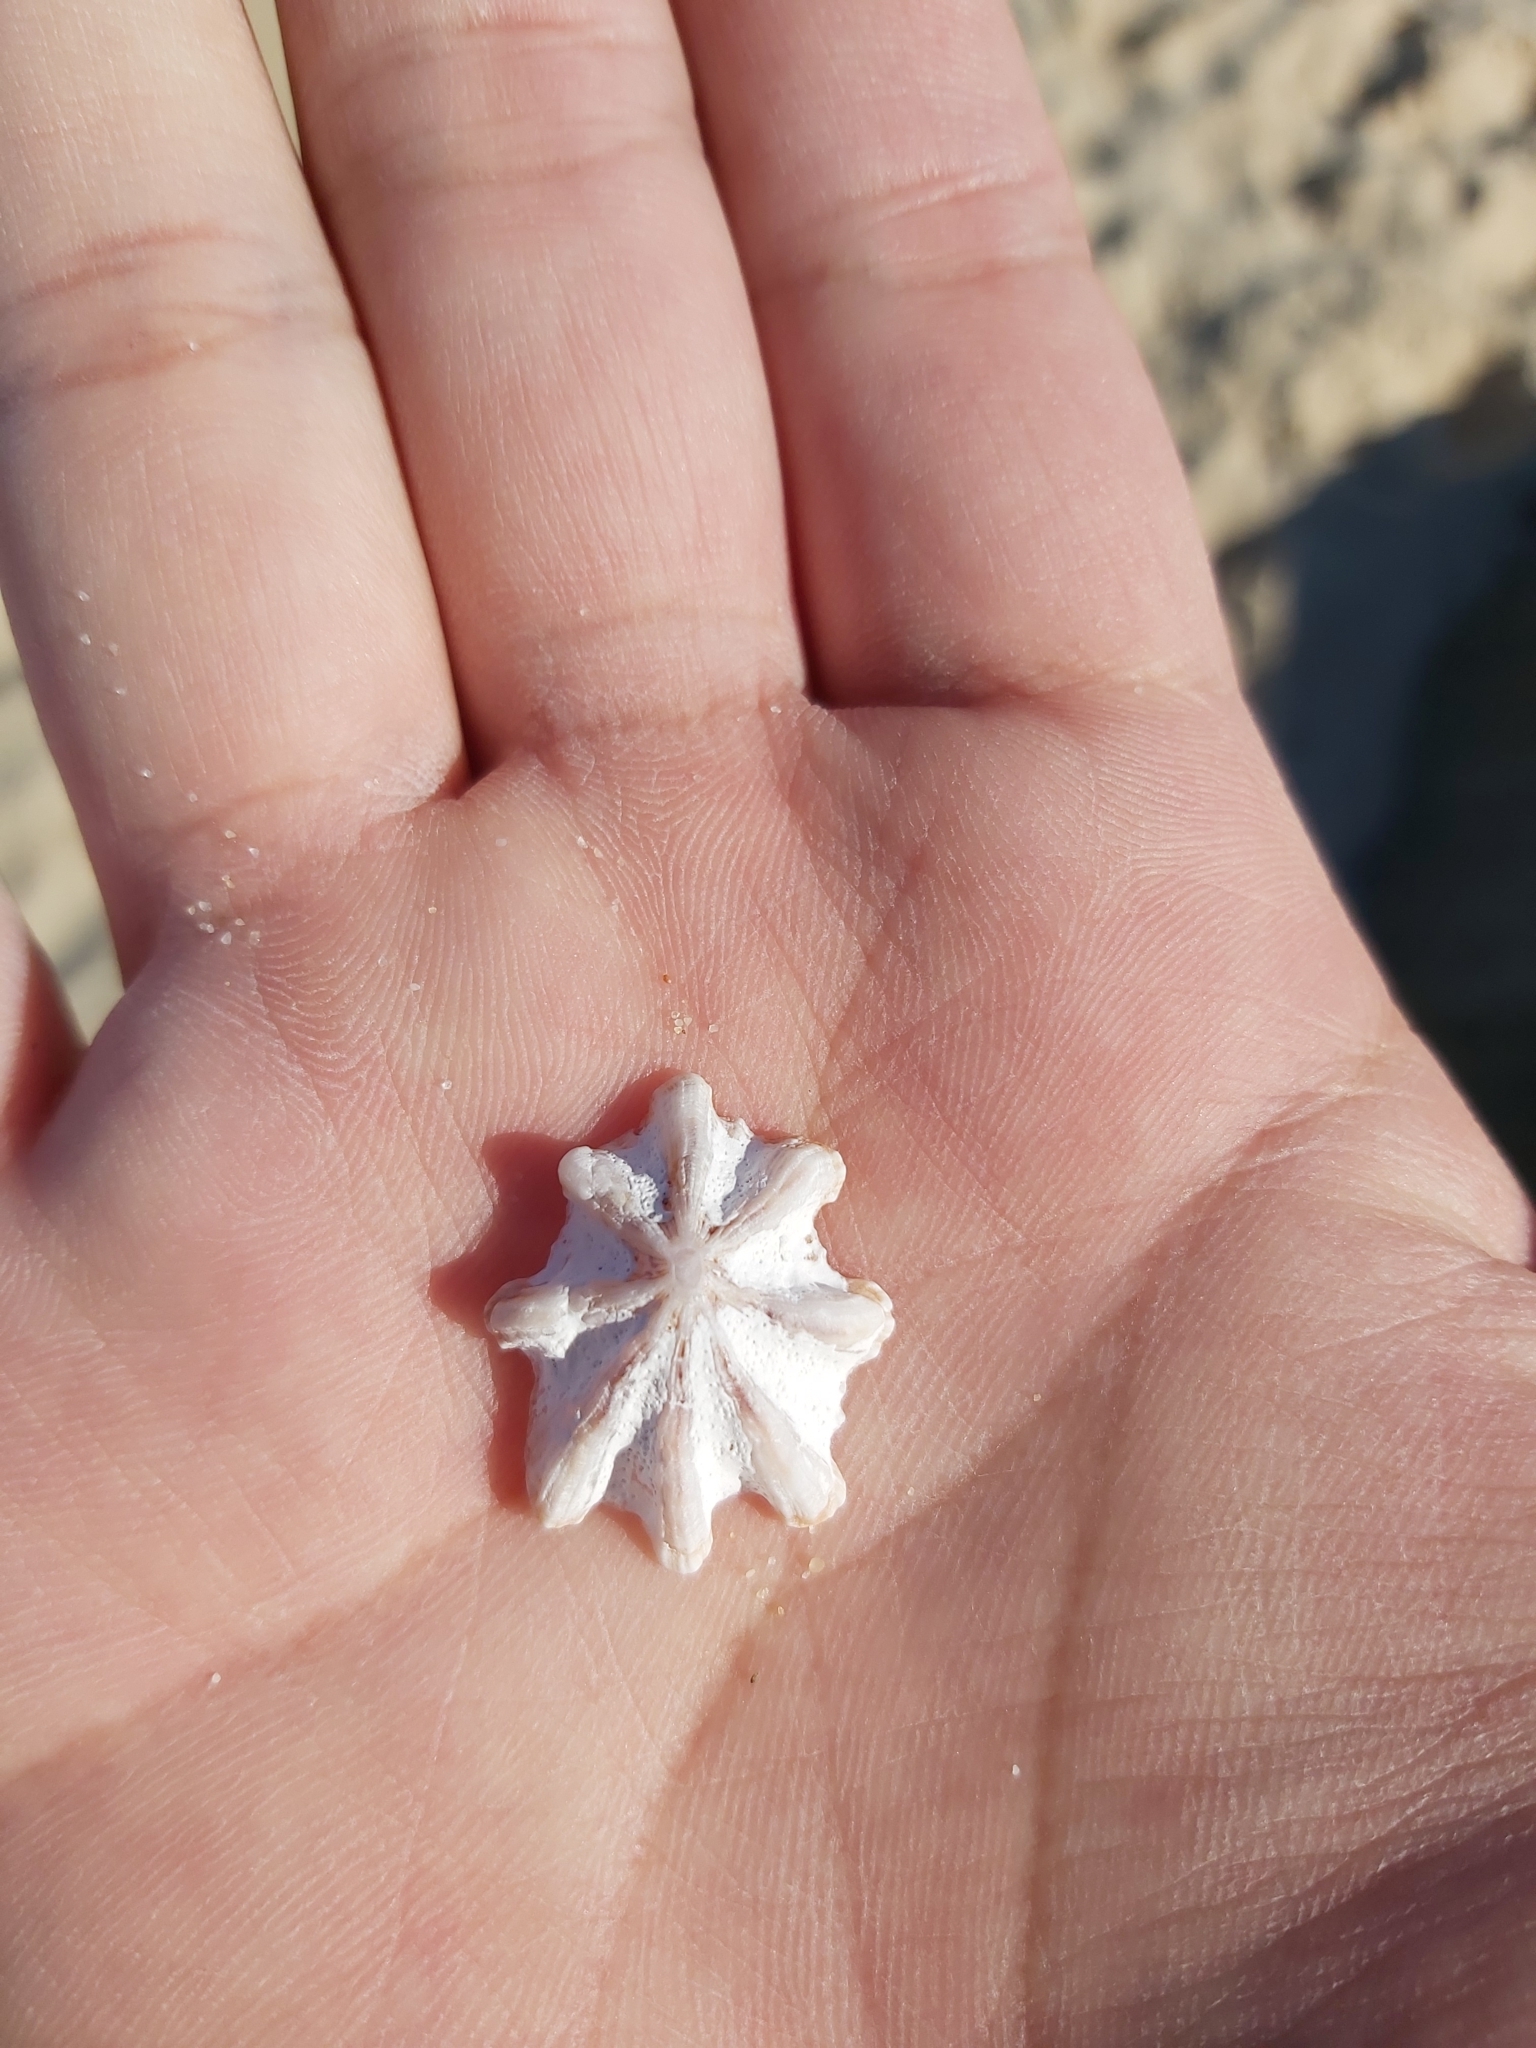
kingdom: Animalia
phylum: Mollusca
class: Gastropoda
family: Patellidae
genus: Scutellastra
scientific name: Scutellastra chapmani
